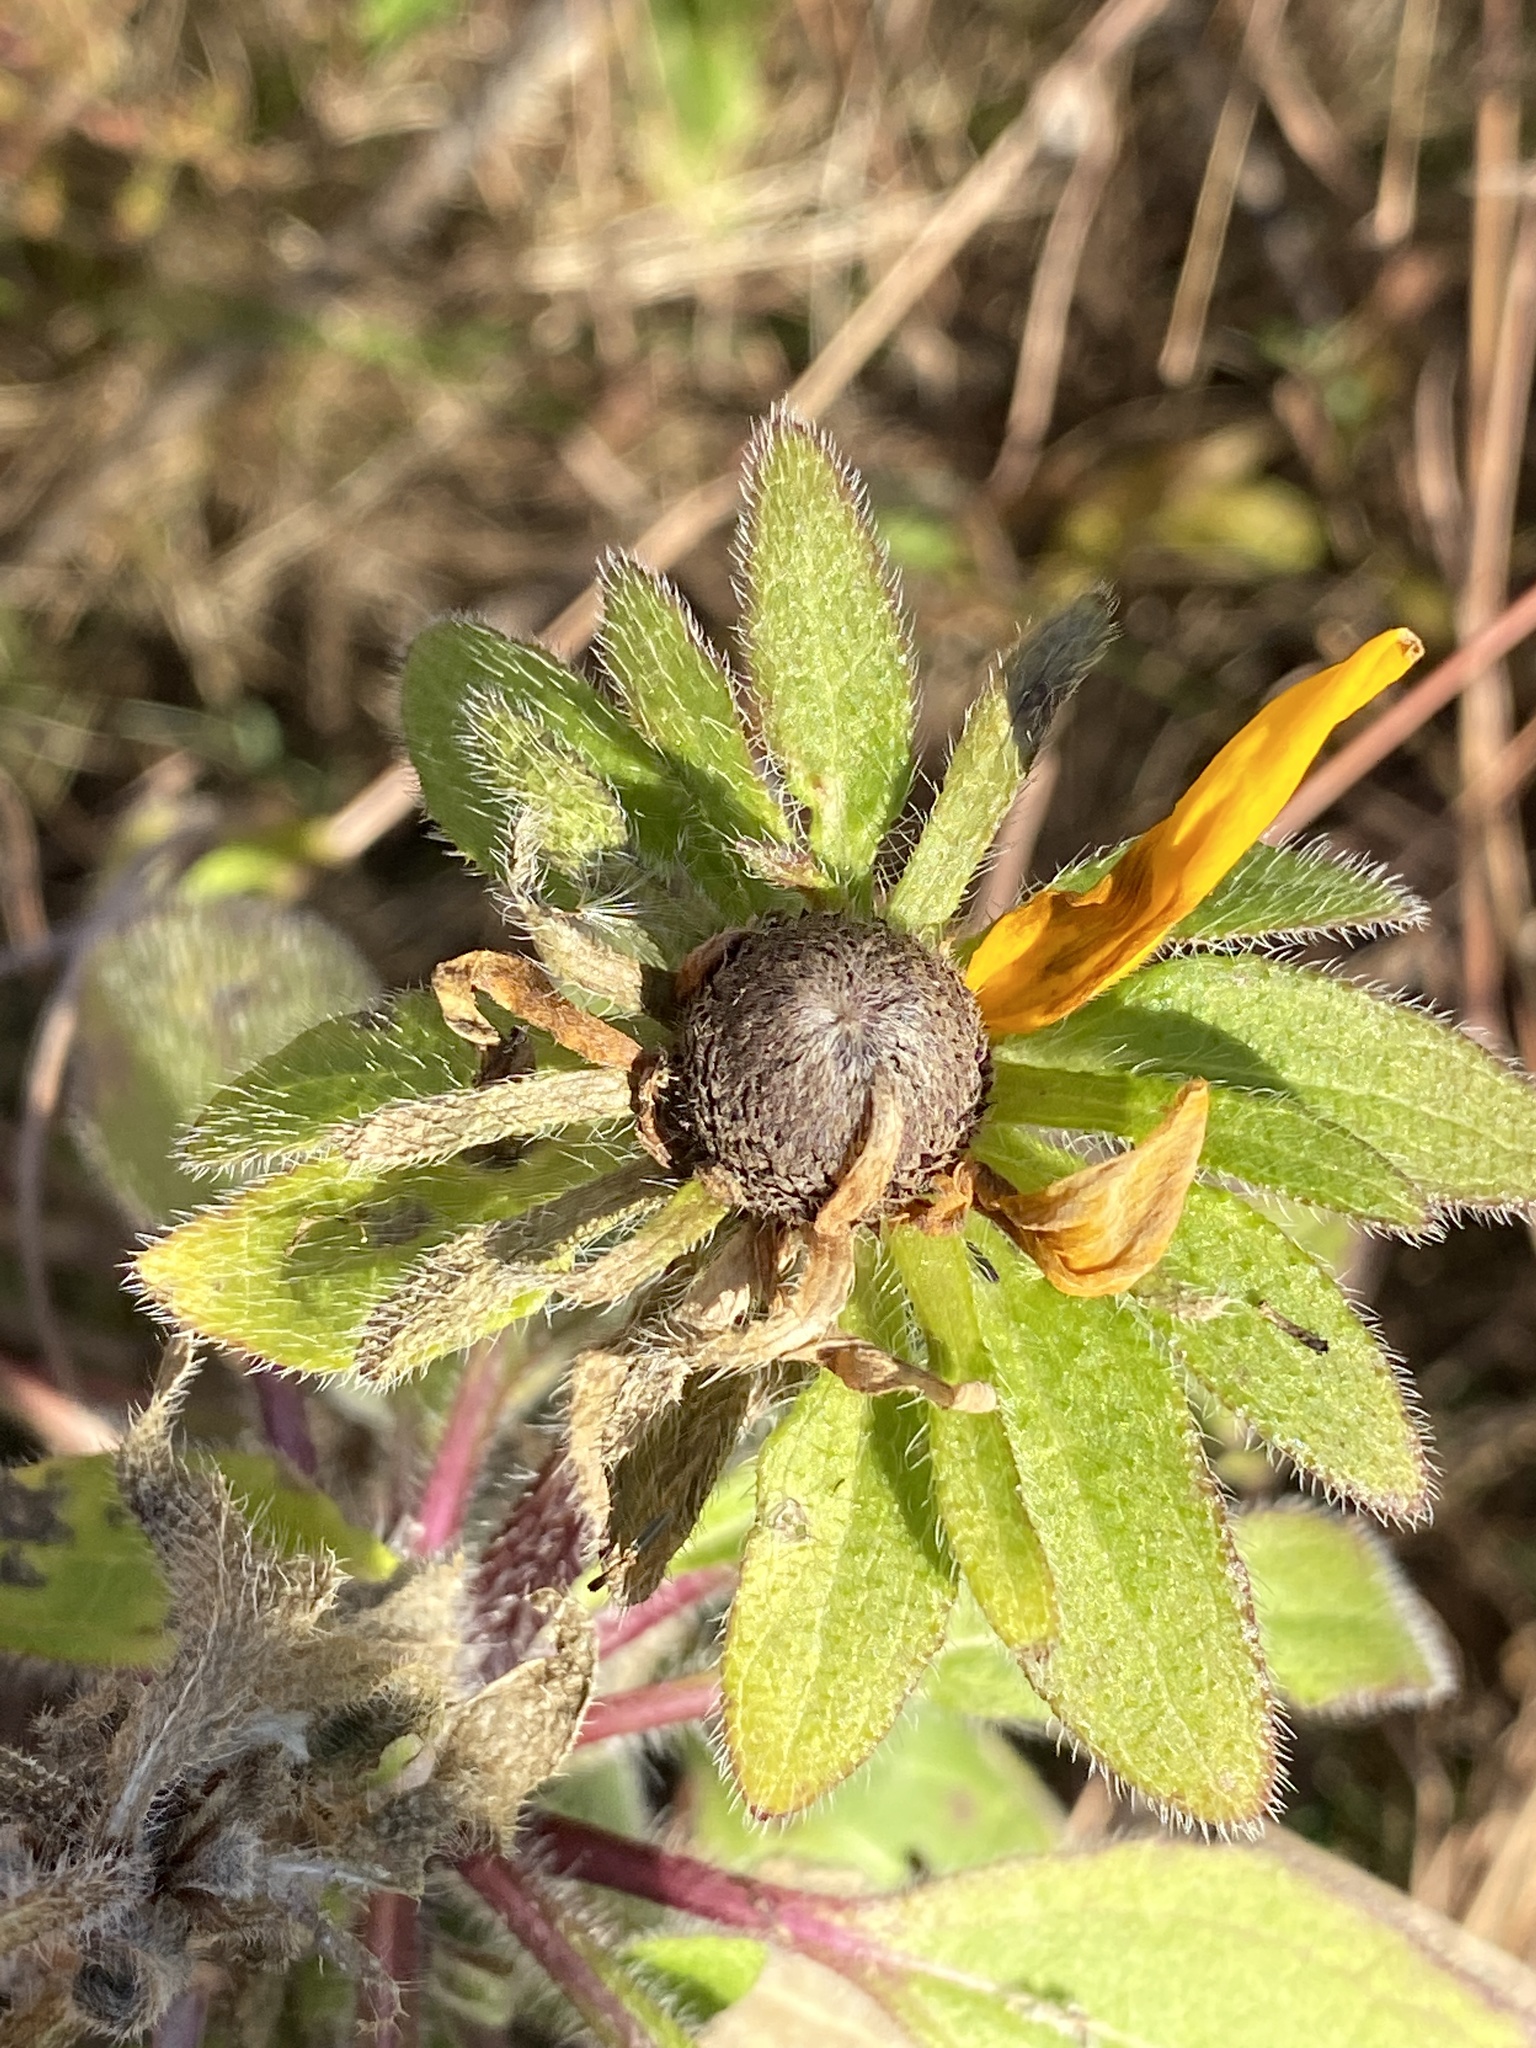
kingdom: Plantae
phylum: Tracheophyta
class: Magnoliopsida
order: Asterales
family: Asteraceae
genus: Rudbeckia
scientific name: Rudbeckia hirta
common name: Black-eyed-susan
